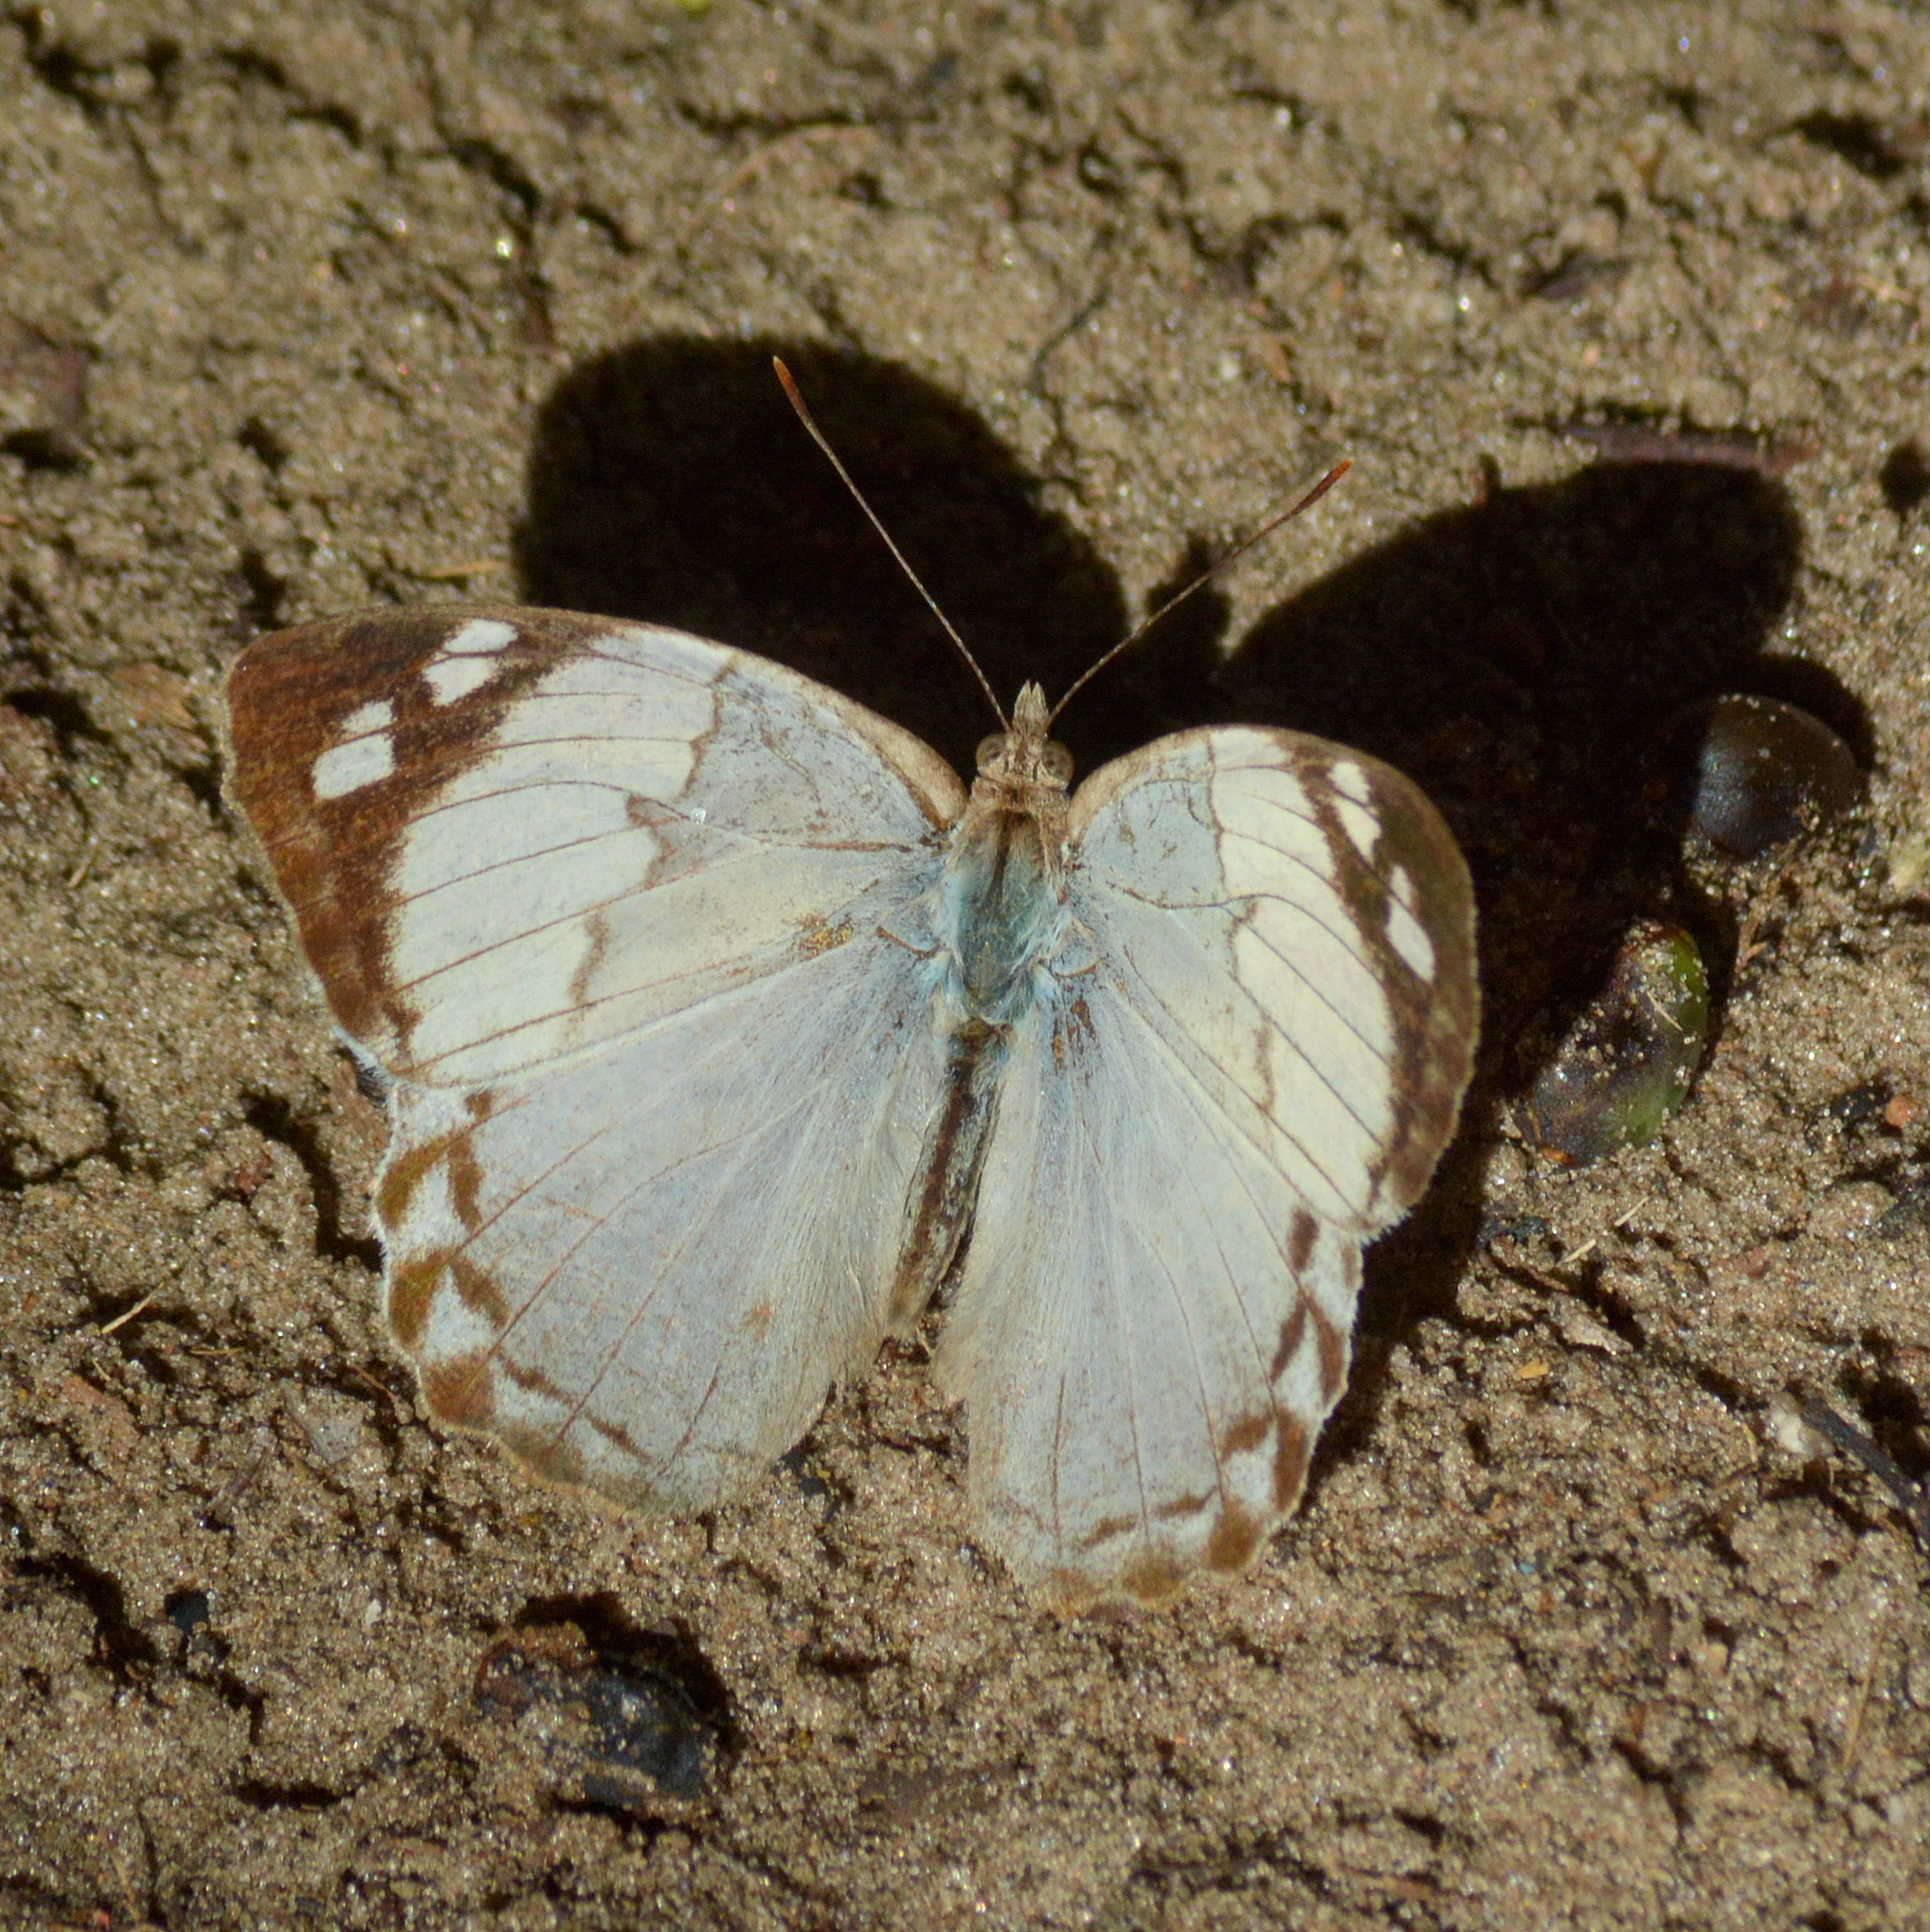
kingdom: Animalia
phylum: Arthropoda
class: Insecta
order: Lepidoptera
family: Nymphalidae
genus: Eunica
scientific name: Eunica eburnea
